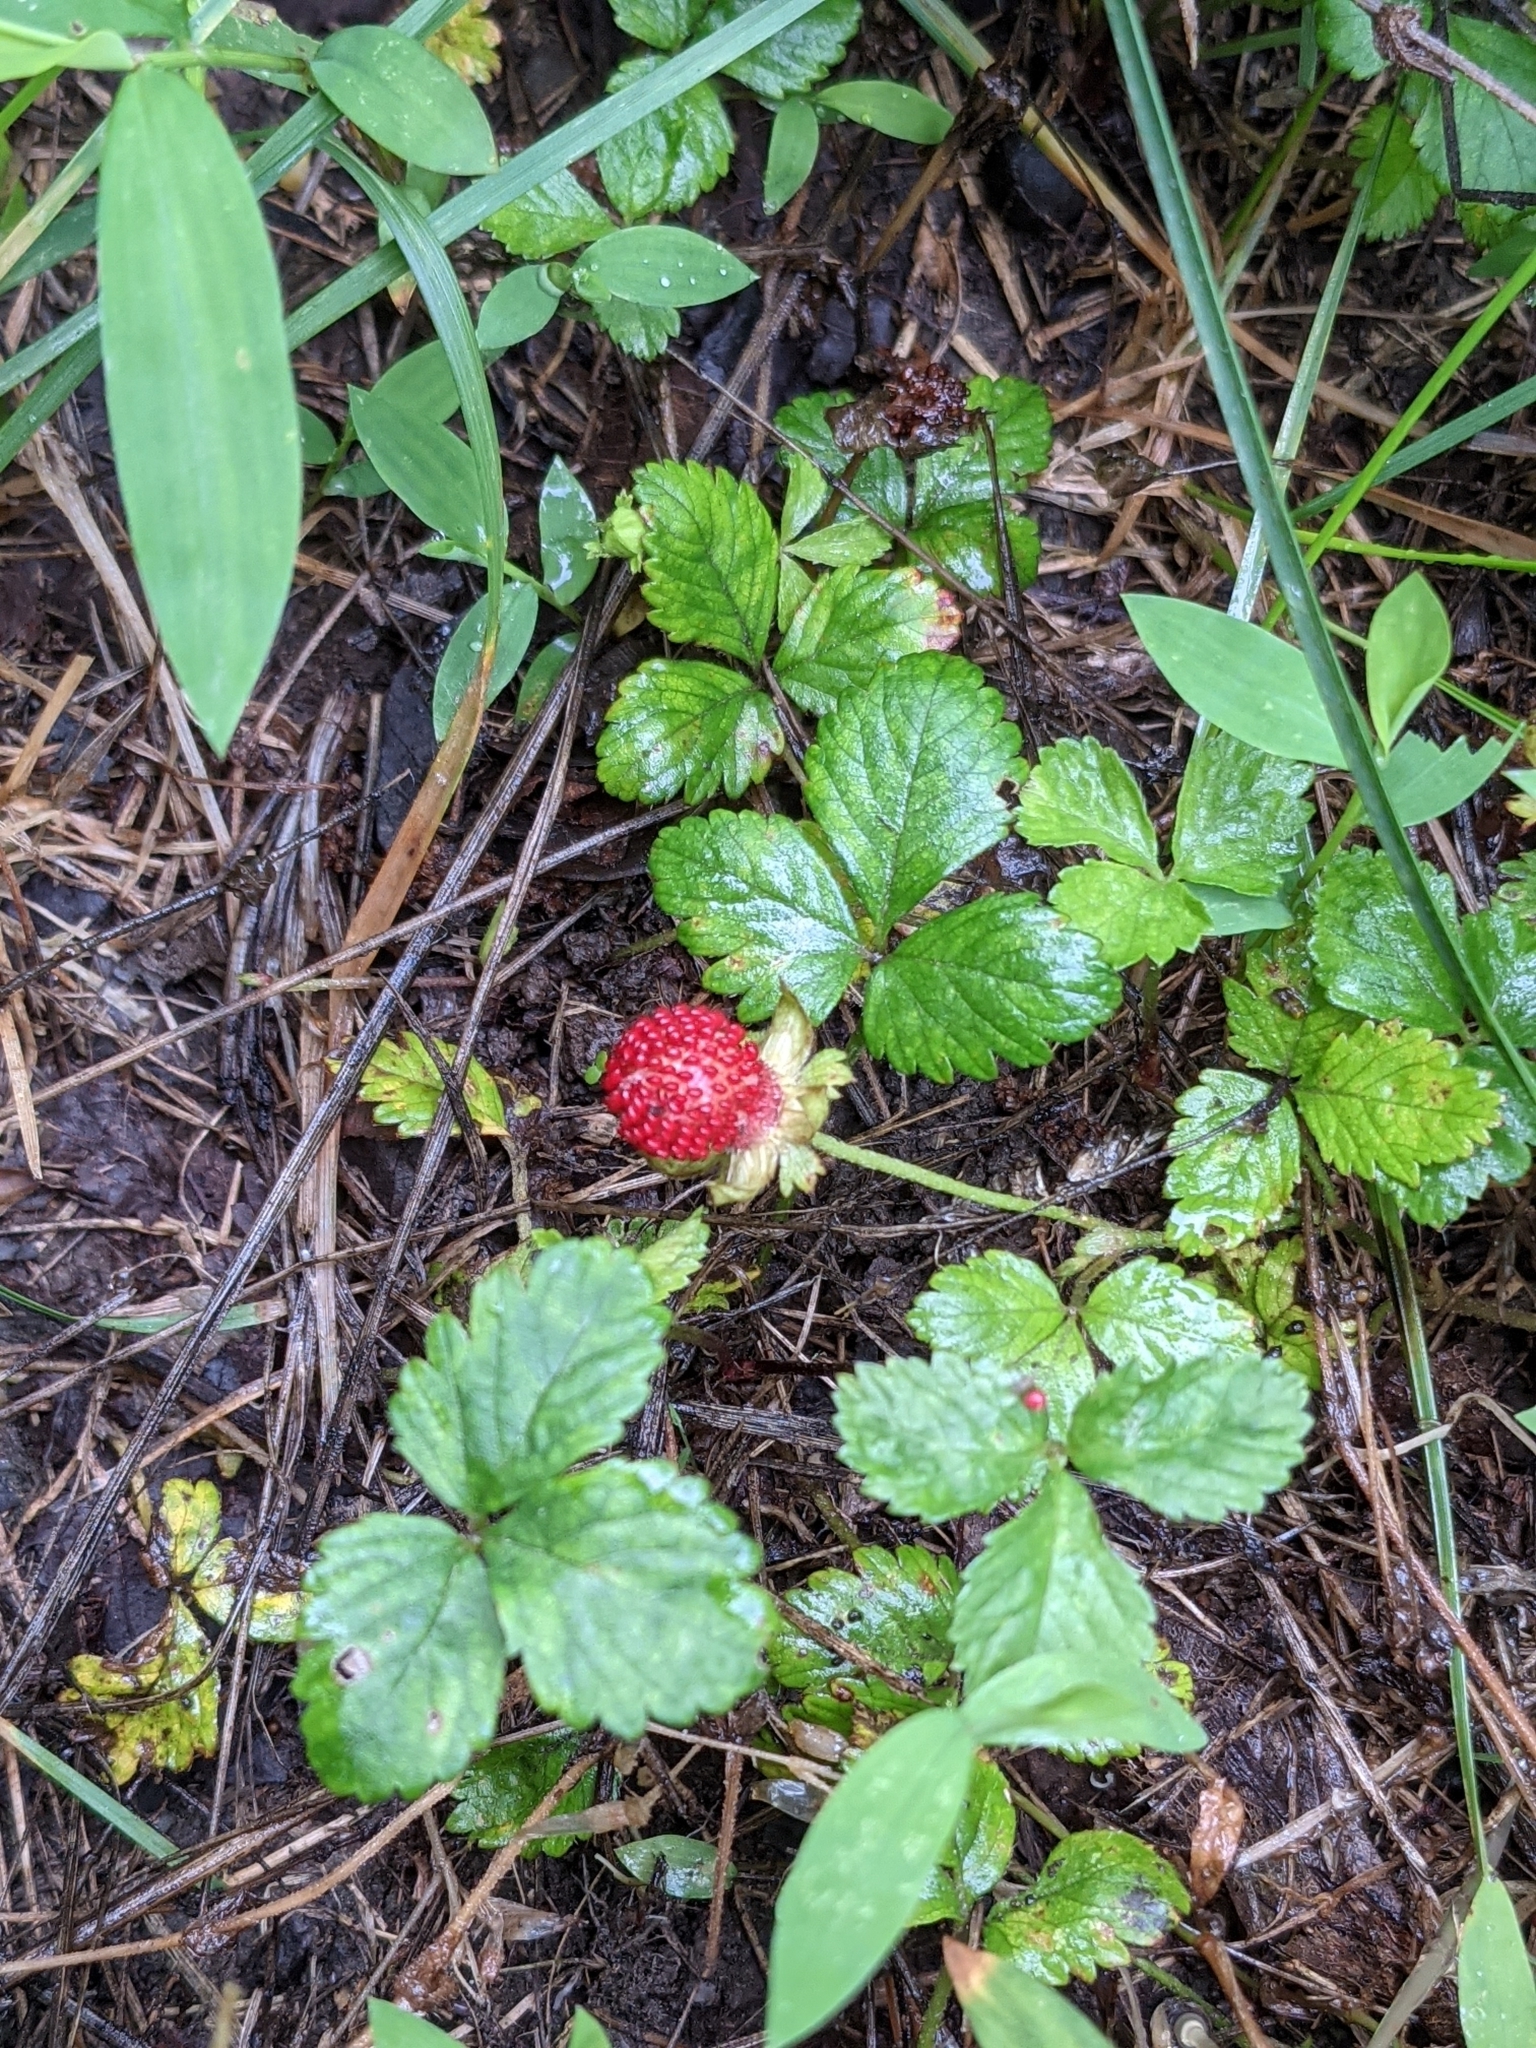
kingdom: Plantae
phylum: Tracheophyta
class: Magnoliopsida
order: Rosales
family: Rosaceae
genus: Potentilla
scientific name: Potentilla indica
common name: Yellow-flowered strawberry
